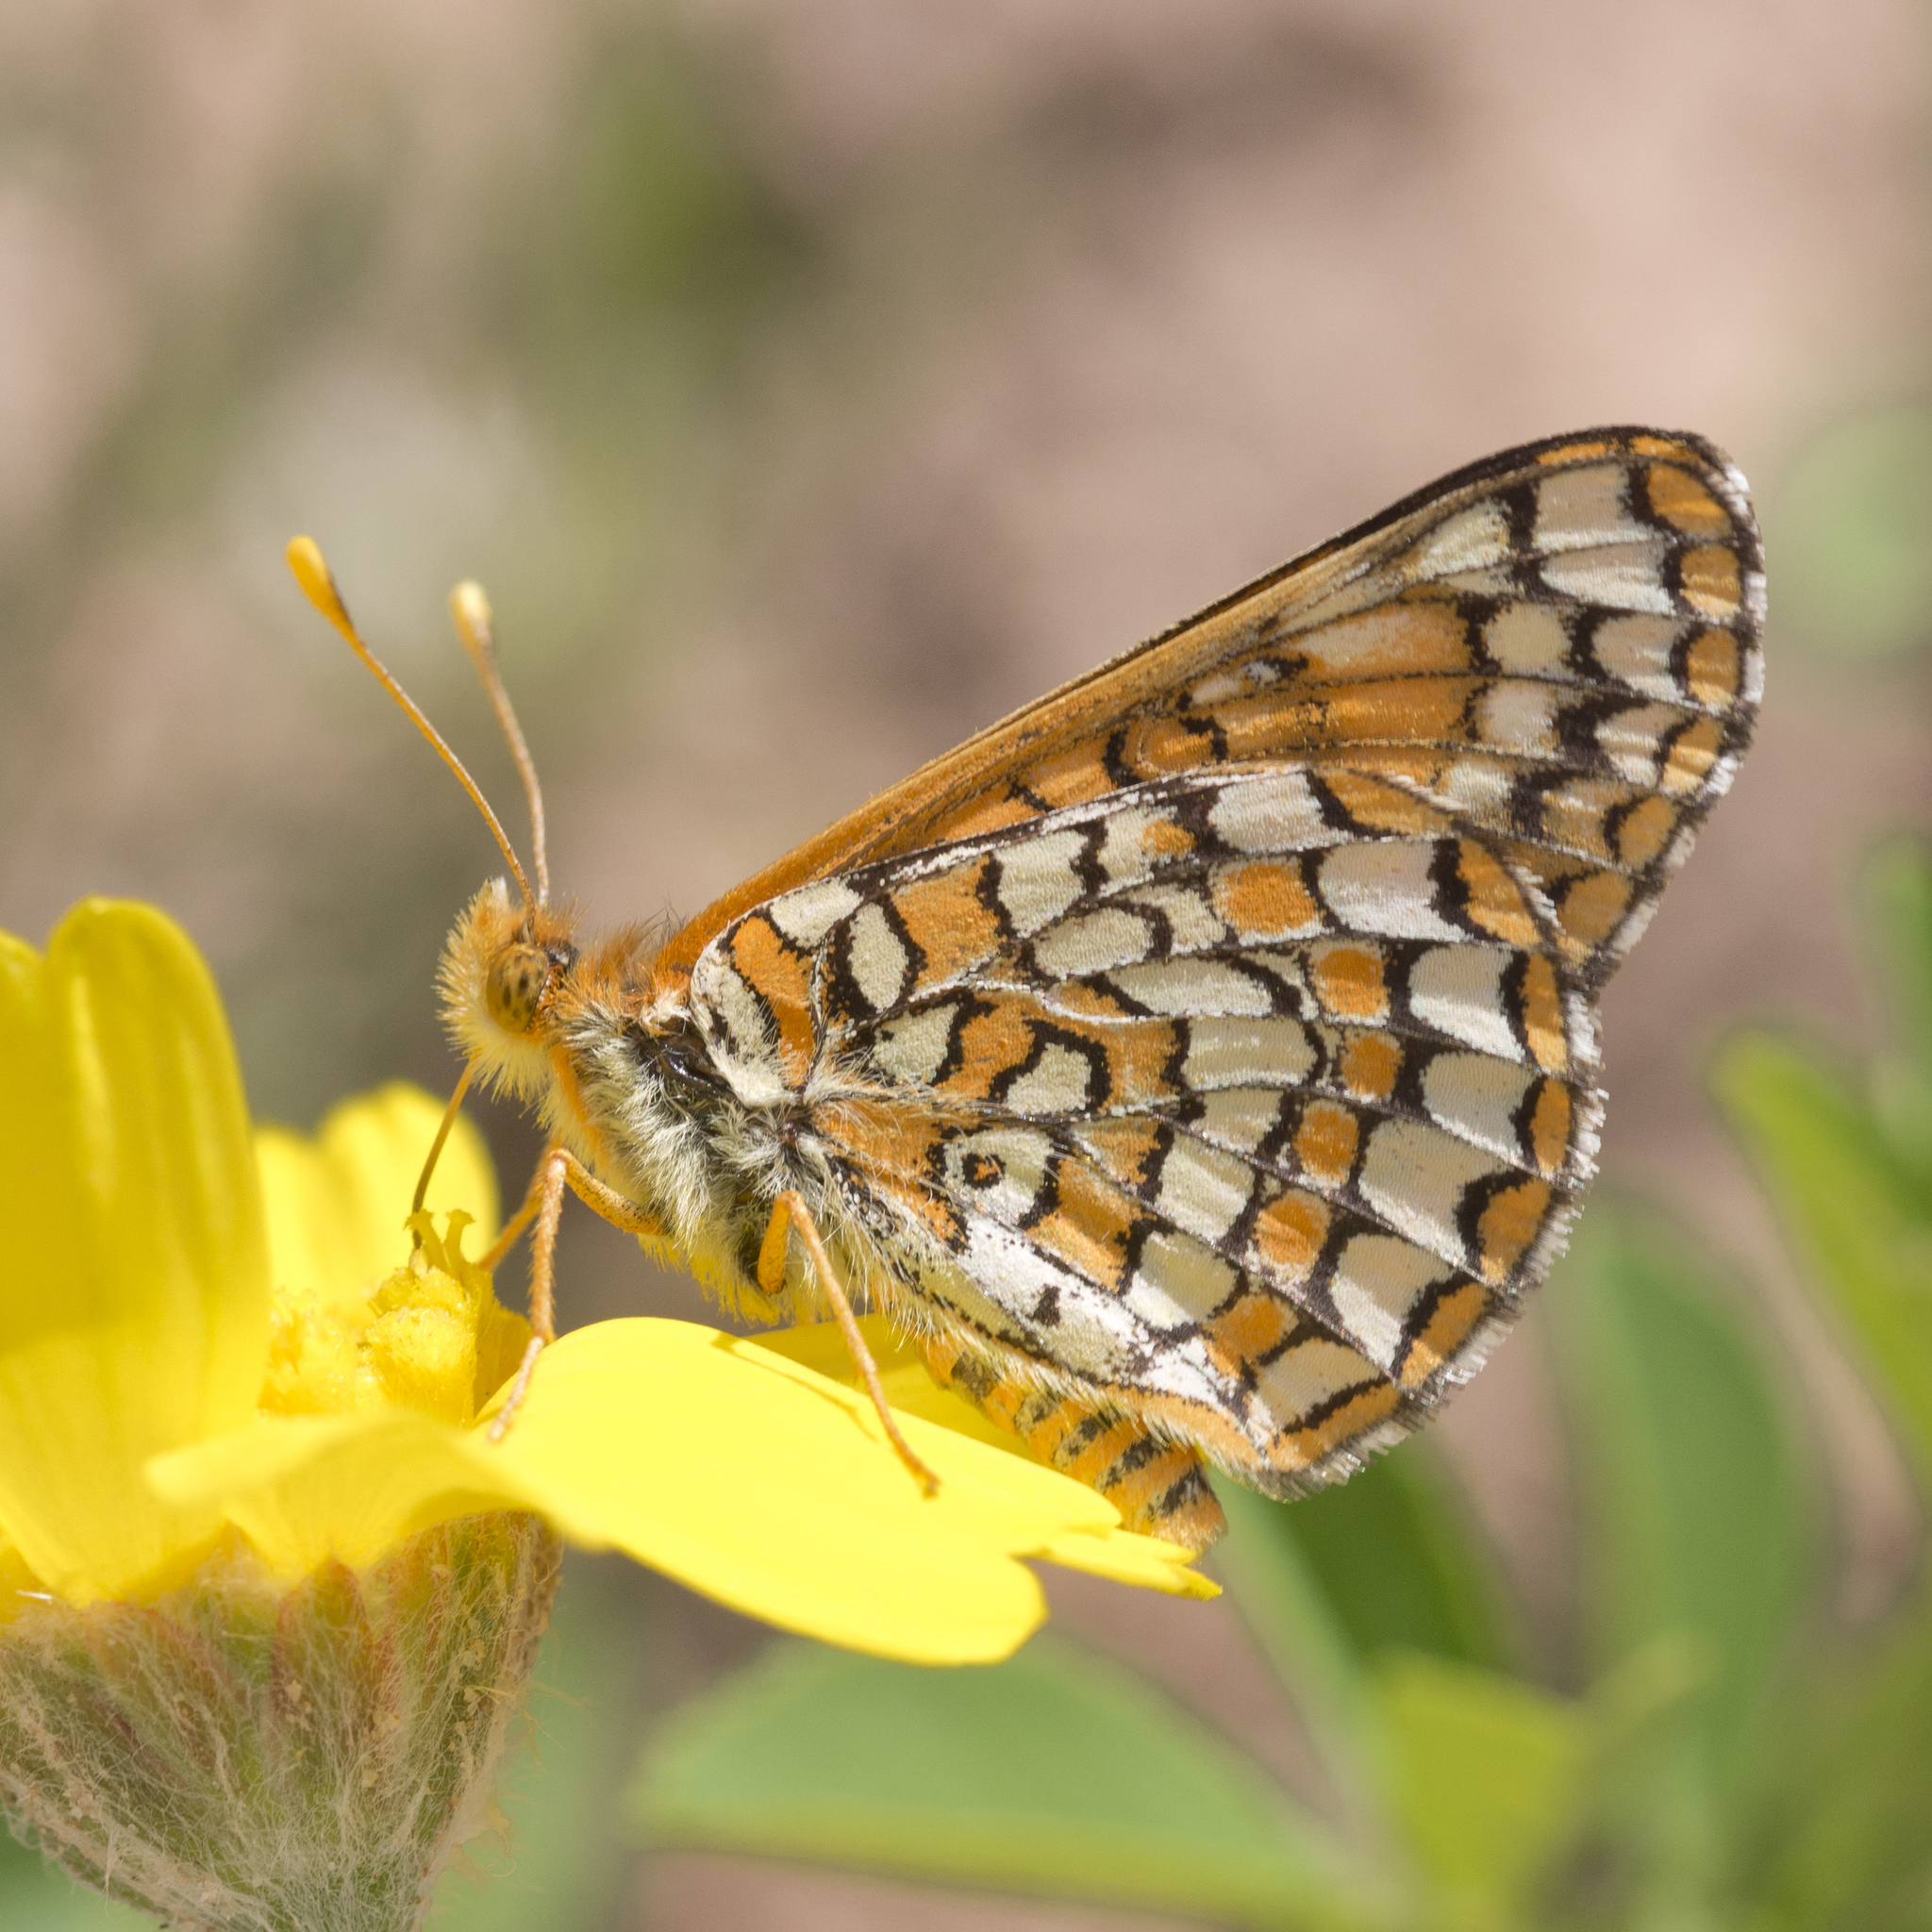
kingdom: Animalia
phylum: Arthropoda
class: Insecta
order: Lepidoptera
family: Nymphalidae
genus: Occidryas
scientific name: Occidryas anicia
